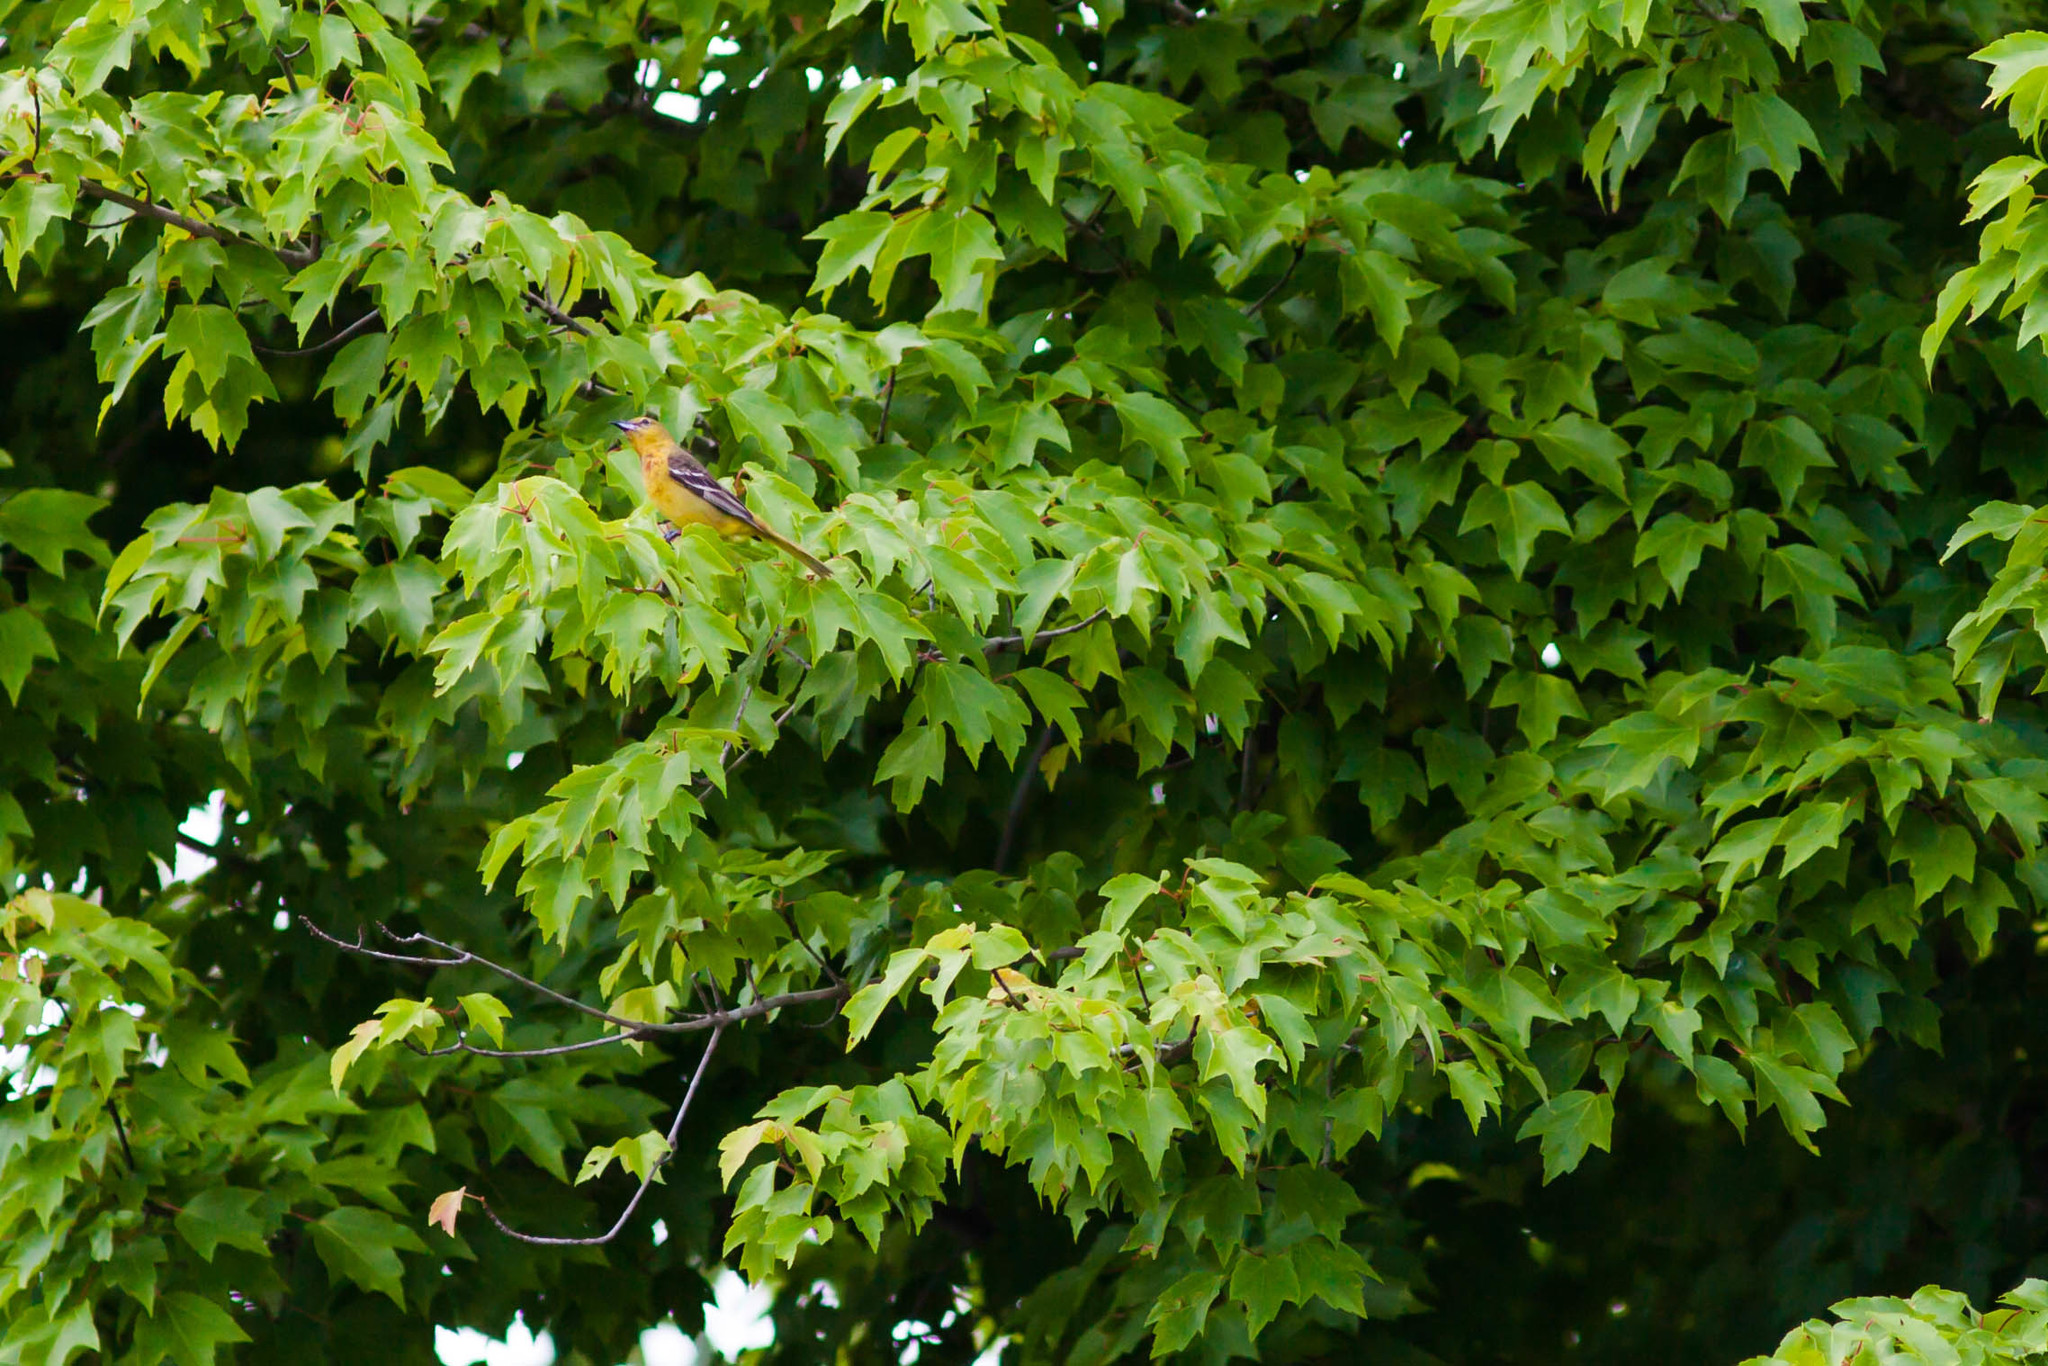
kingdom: Animalia
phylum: Chordata
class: Aves
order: Passeriformes
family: Icteridae
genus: Icterus
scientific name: Icterus spurius
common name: Orchard oriole
